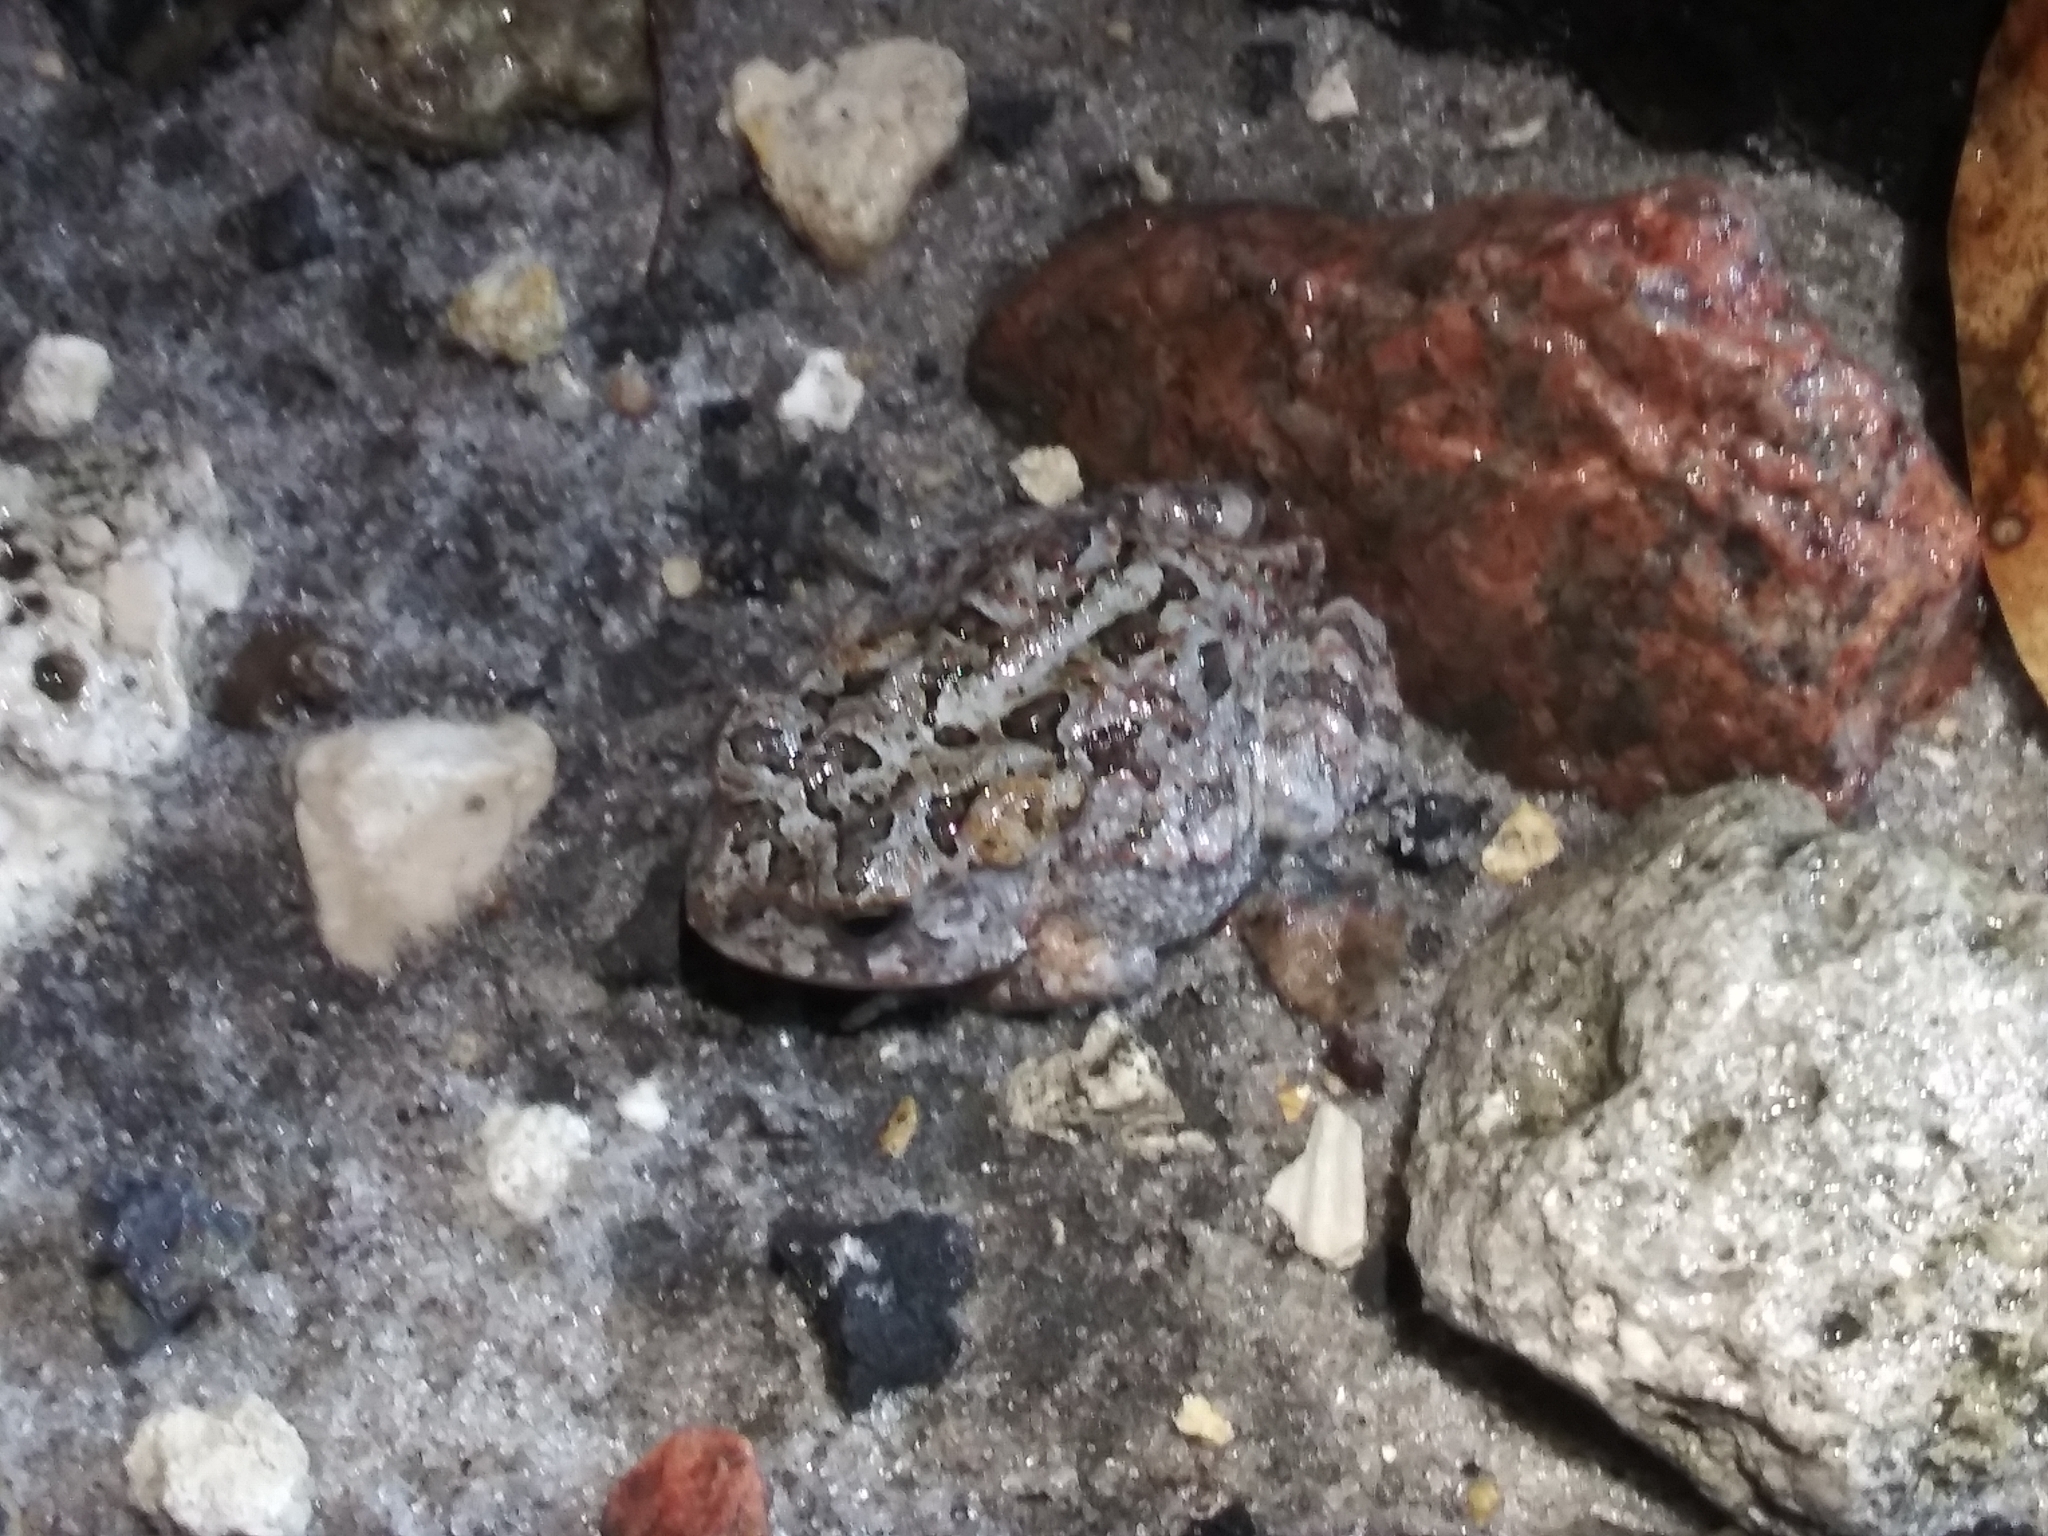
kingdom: Animalia
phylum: Chordata
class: Amphibia
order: Anura
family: Bufonidae
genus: Anaxyrus
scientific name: Anaxyrus terrestris
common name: Southern toad
